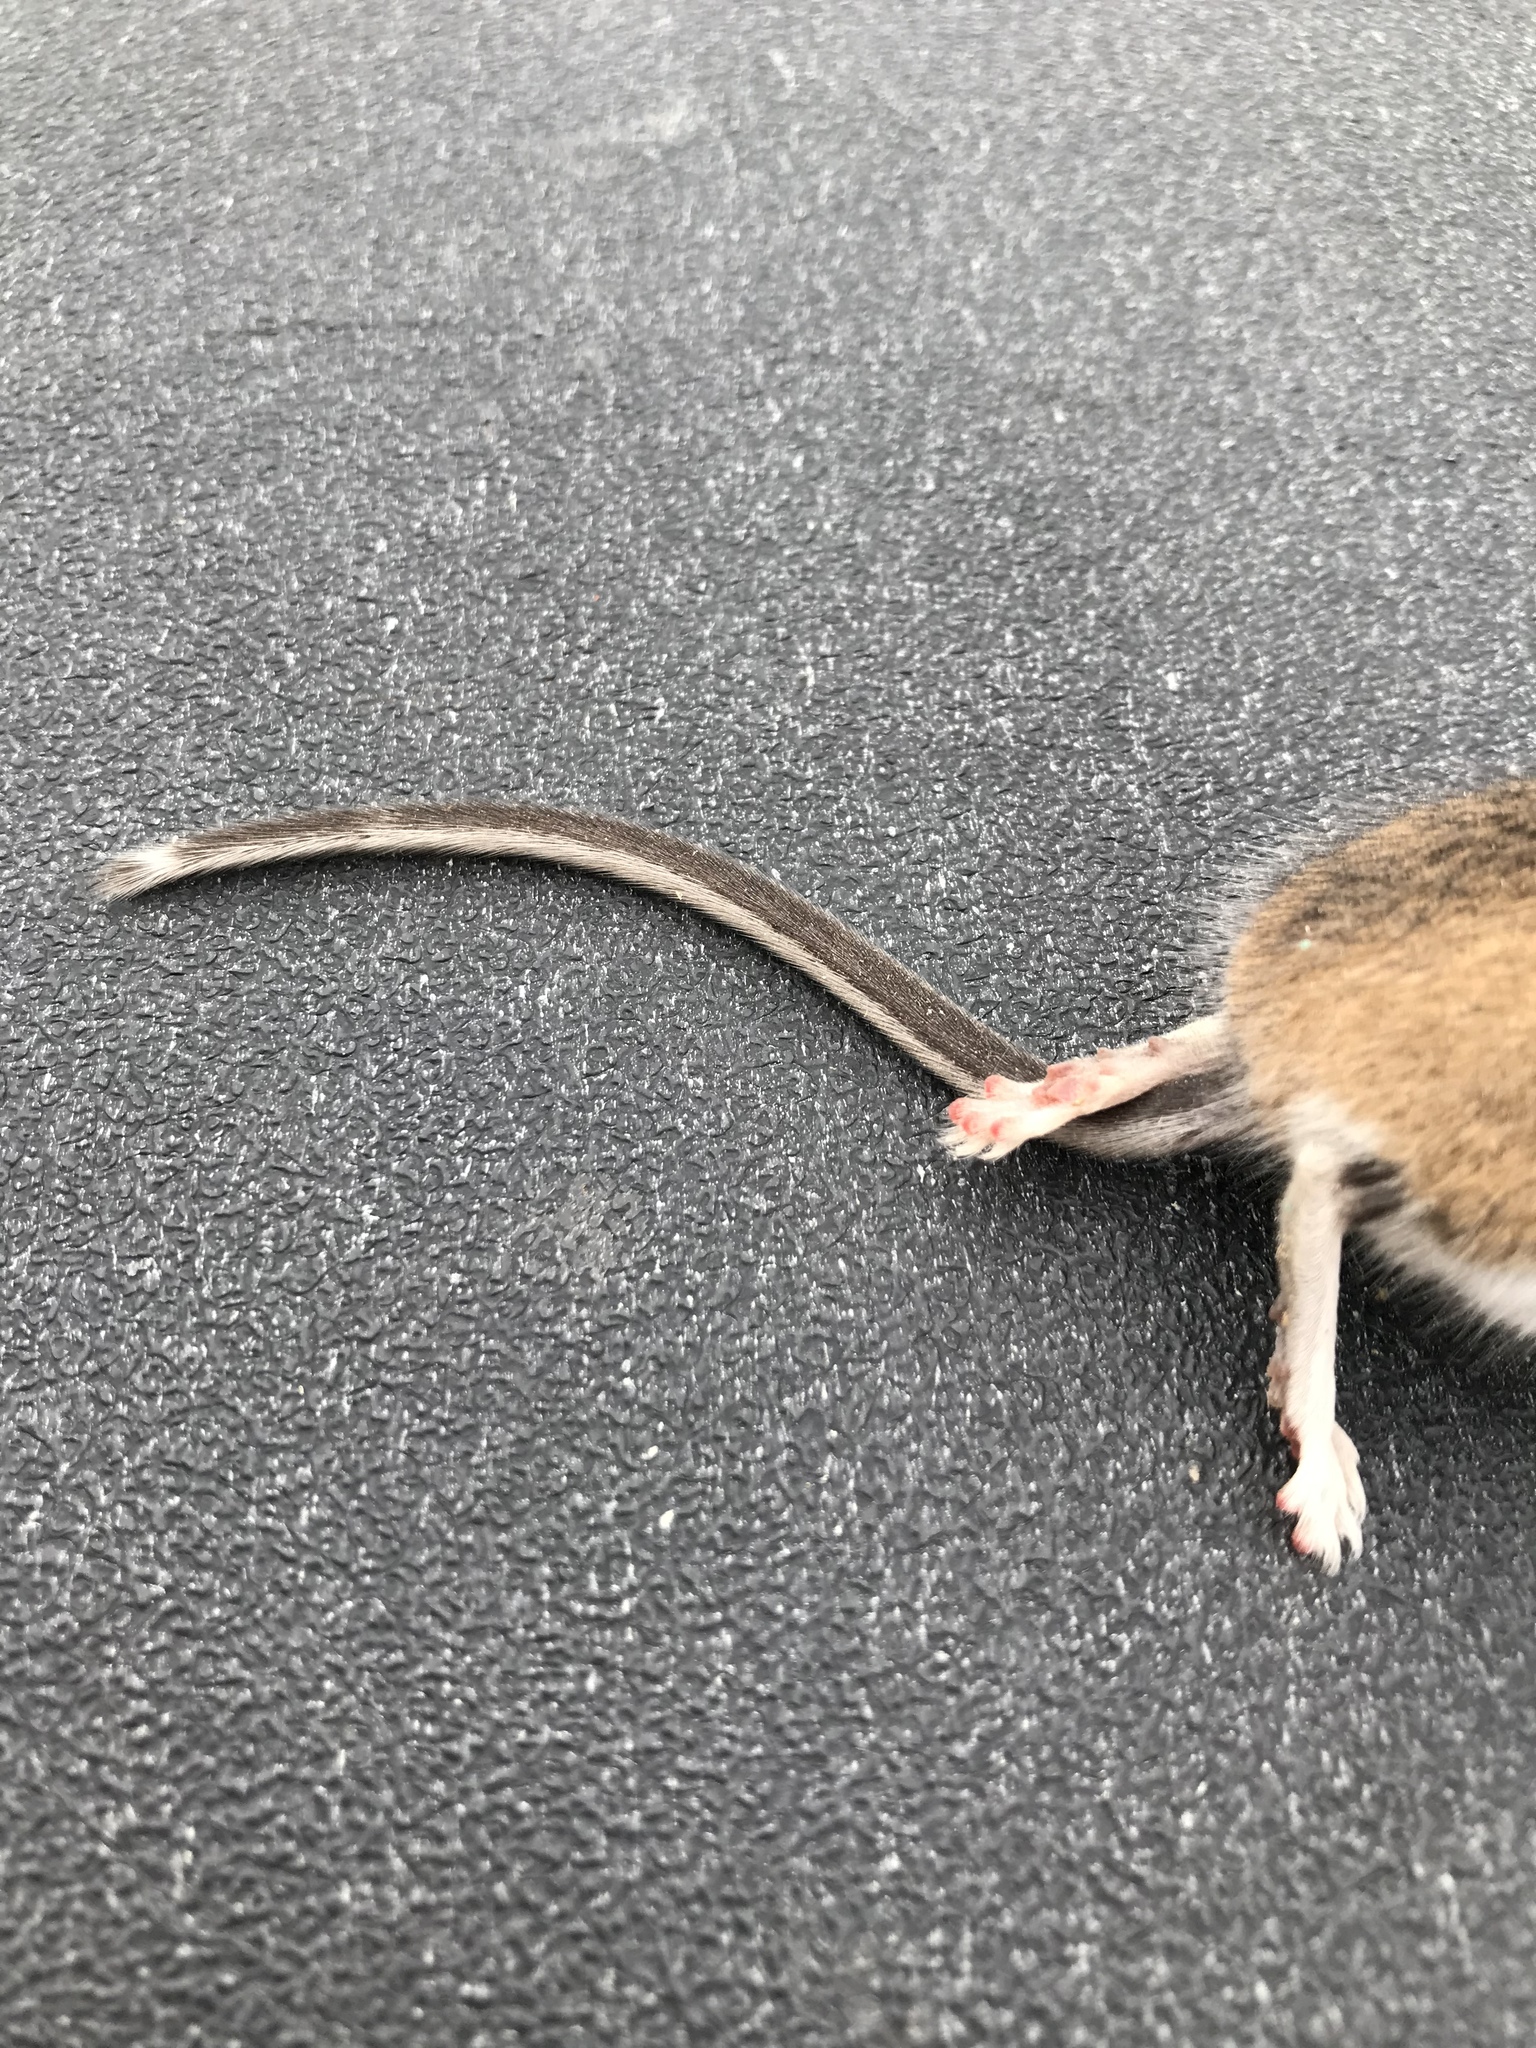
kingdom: Animalia
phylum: Chordata
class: Mammalia
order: Rodentia
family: Cricetidae
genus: Peromyscus
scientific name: Peromyscus maniculatus
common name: Deer mouse
